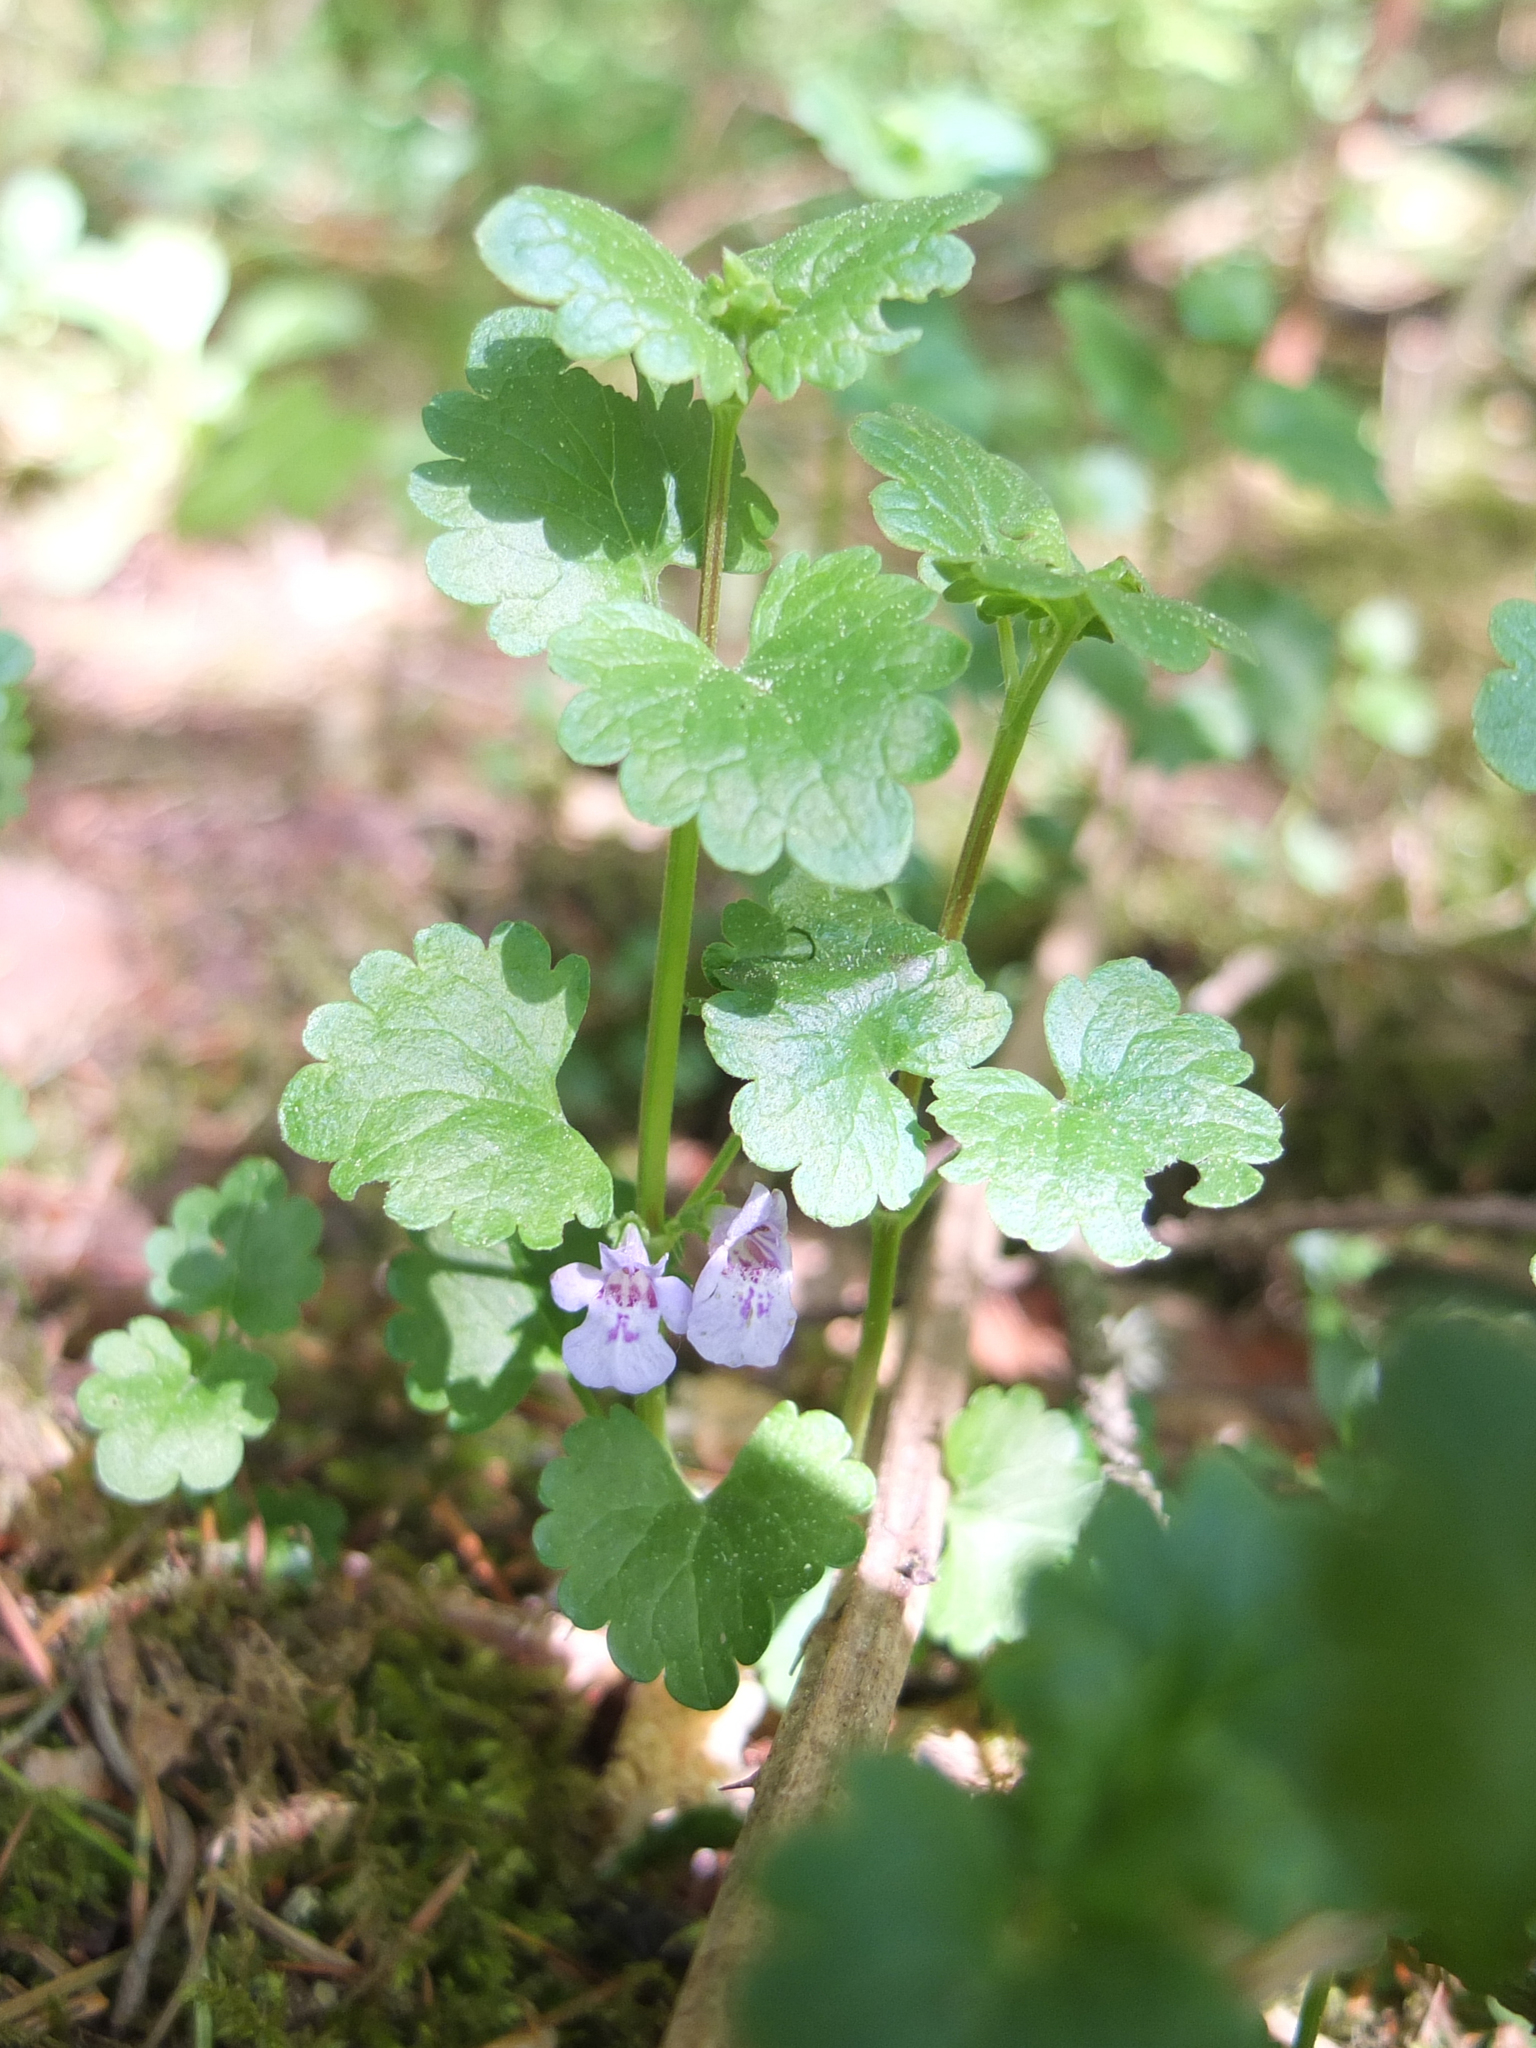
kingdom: Plantae
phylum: Tracheophyta
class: Magnoliopsida
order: Lamiales
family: Lamiaceae
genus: Glechoma
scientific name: Glechoma hederacea
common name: Ground ivy
